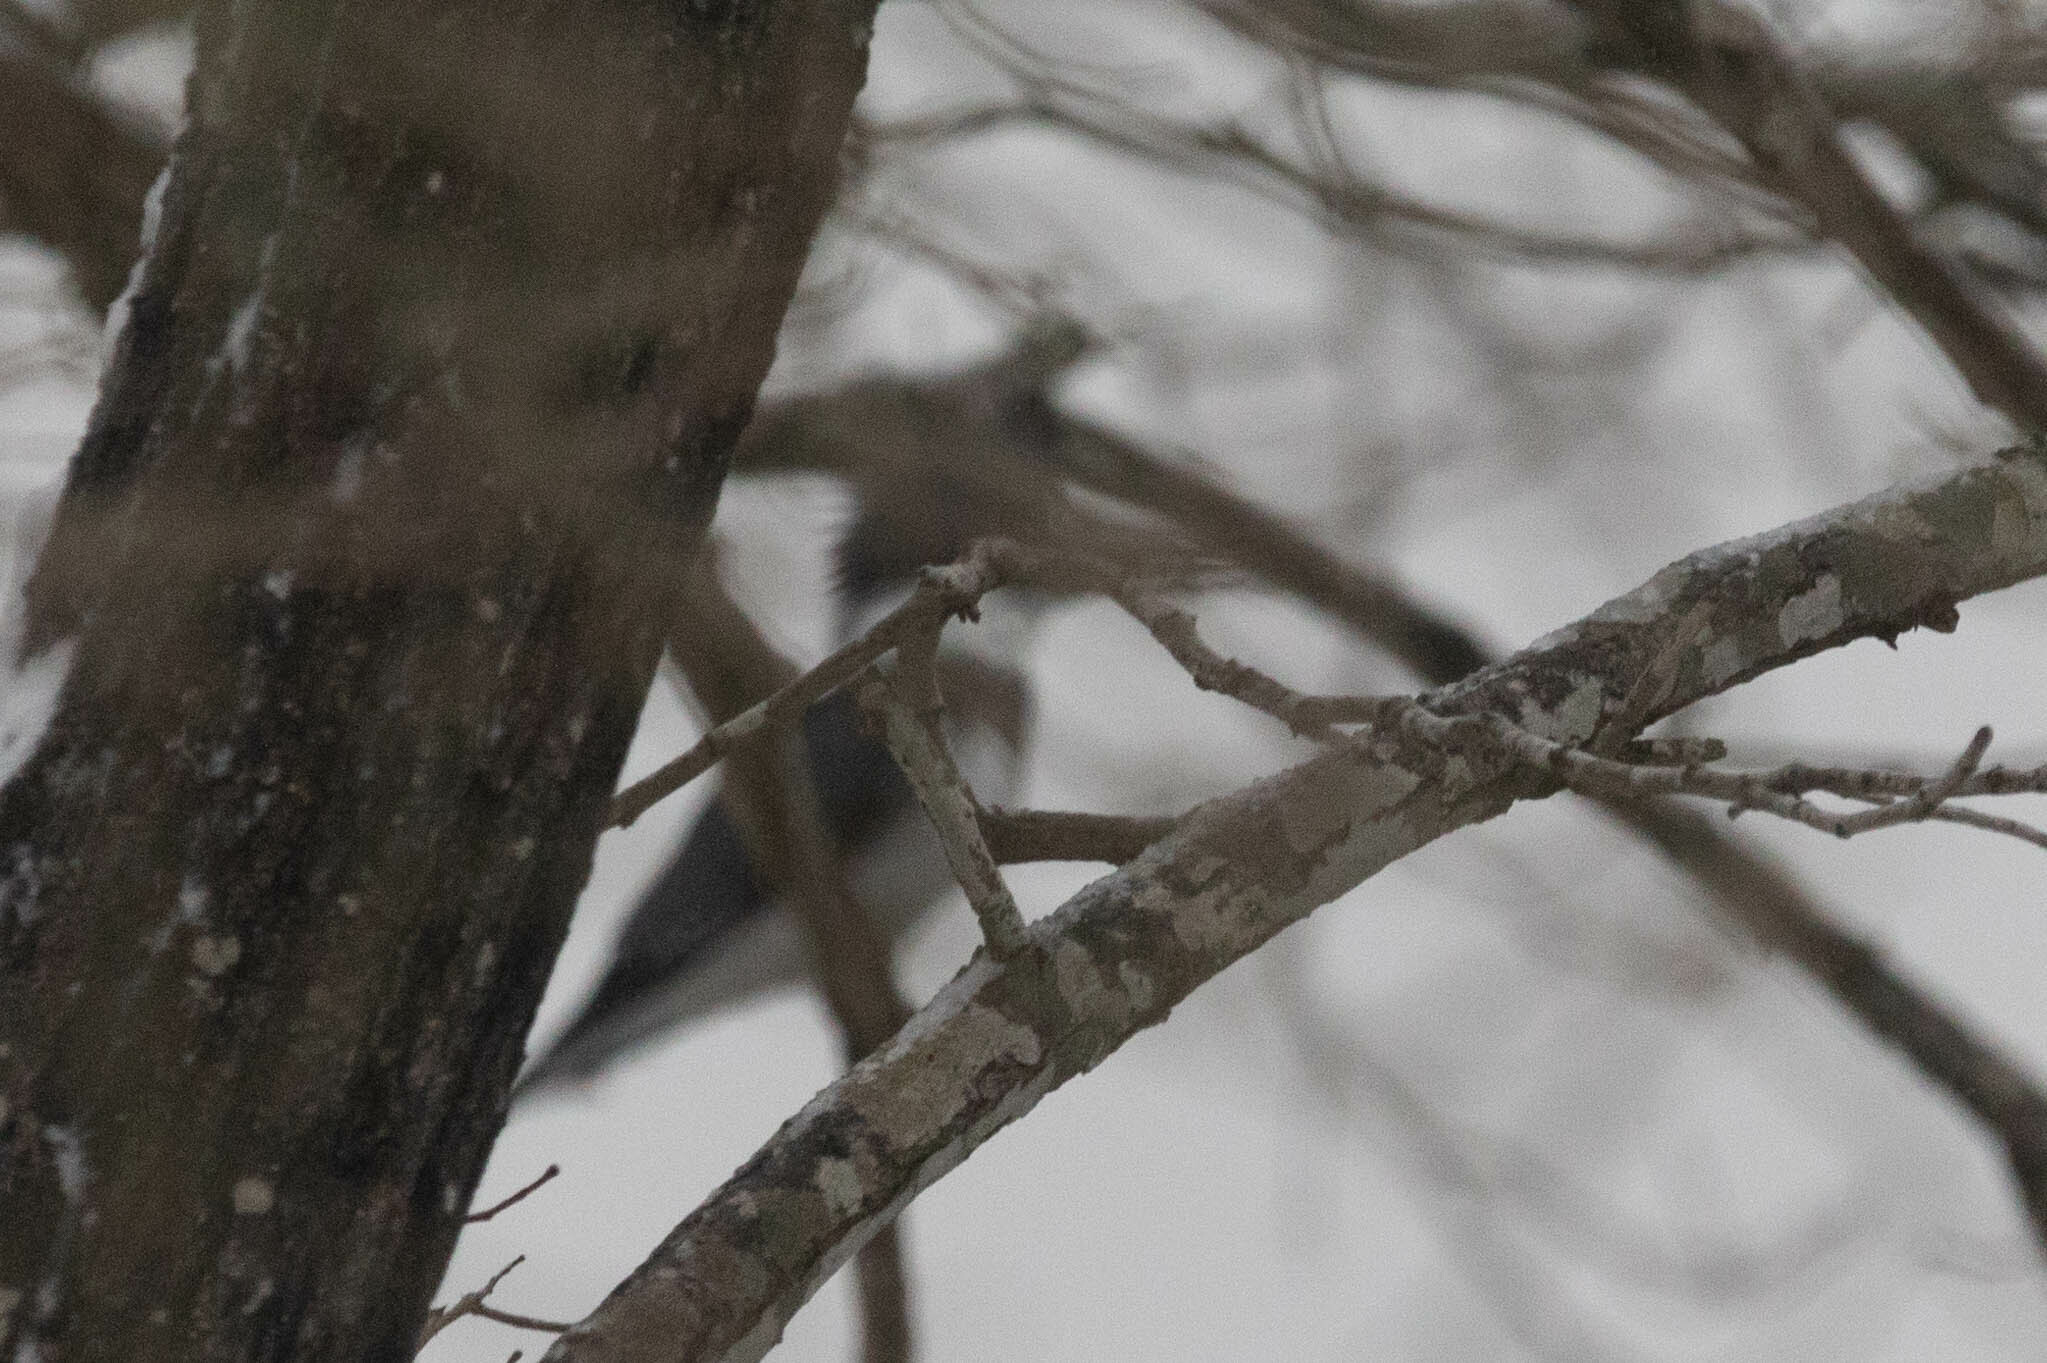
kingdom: Animalia
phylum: Chordata
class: Aves
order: Coraciiformes
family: Alcedinidae
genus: Megaceryle
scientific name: Megaceryle alcyon
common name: Belted kingfisher
